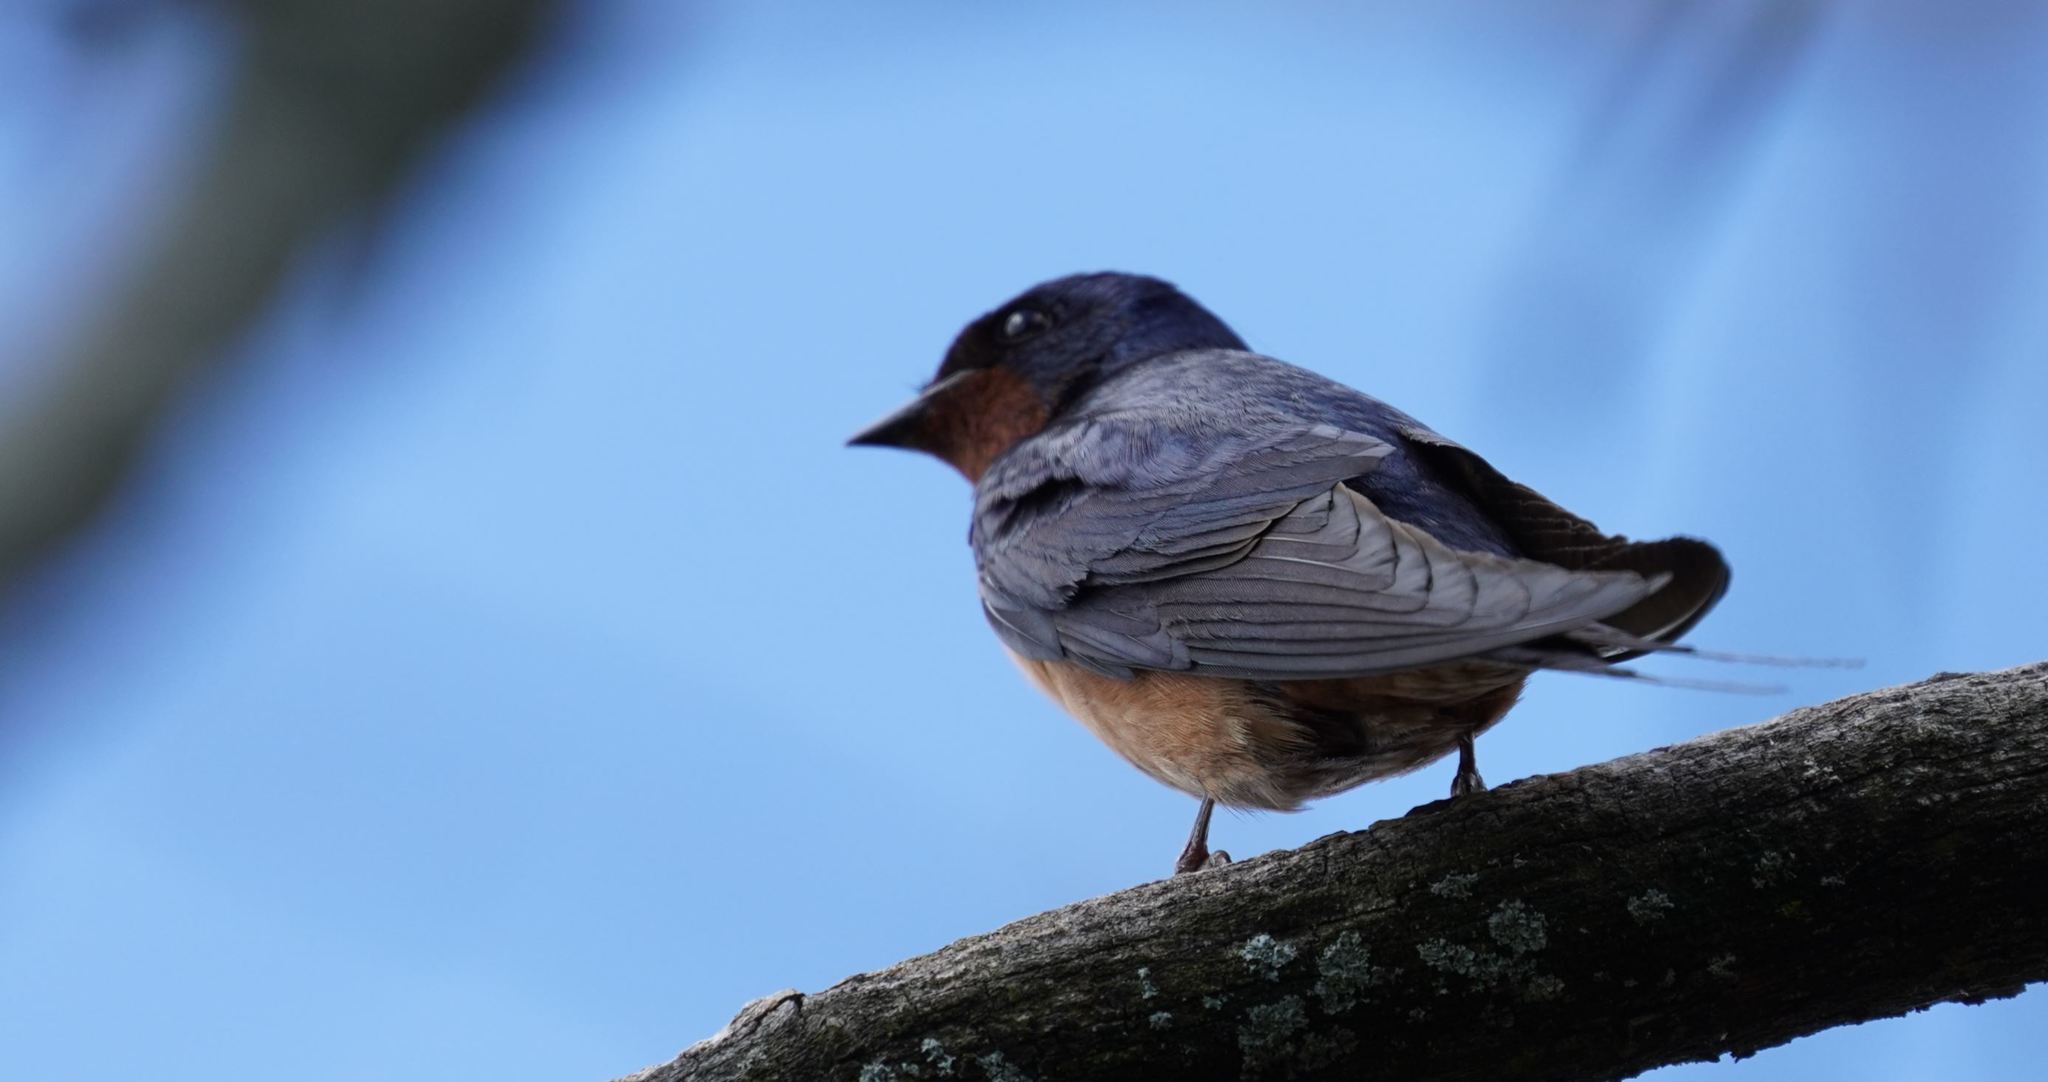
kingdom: Animalia
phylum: Chordata
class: Aves
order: Passeriformes
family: Hirundinidae
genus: Hirundo
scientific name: Hirundo rustica
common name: Barn swallow
